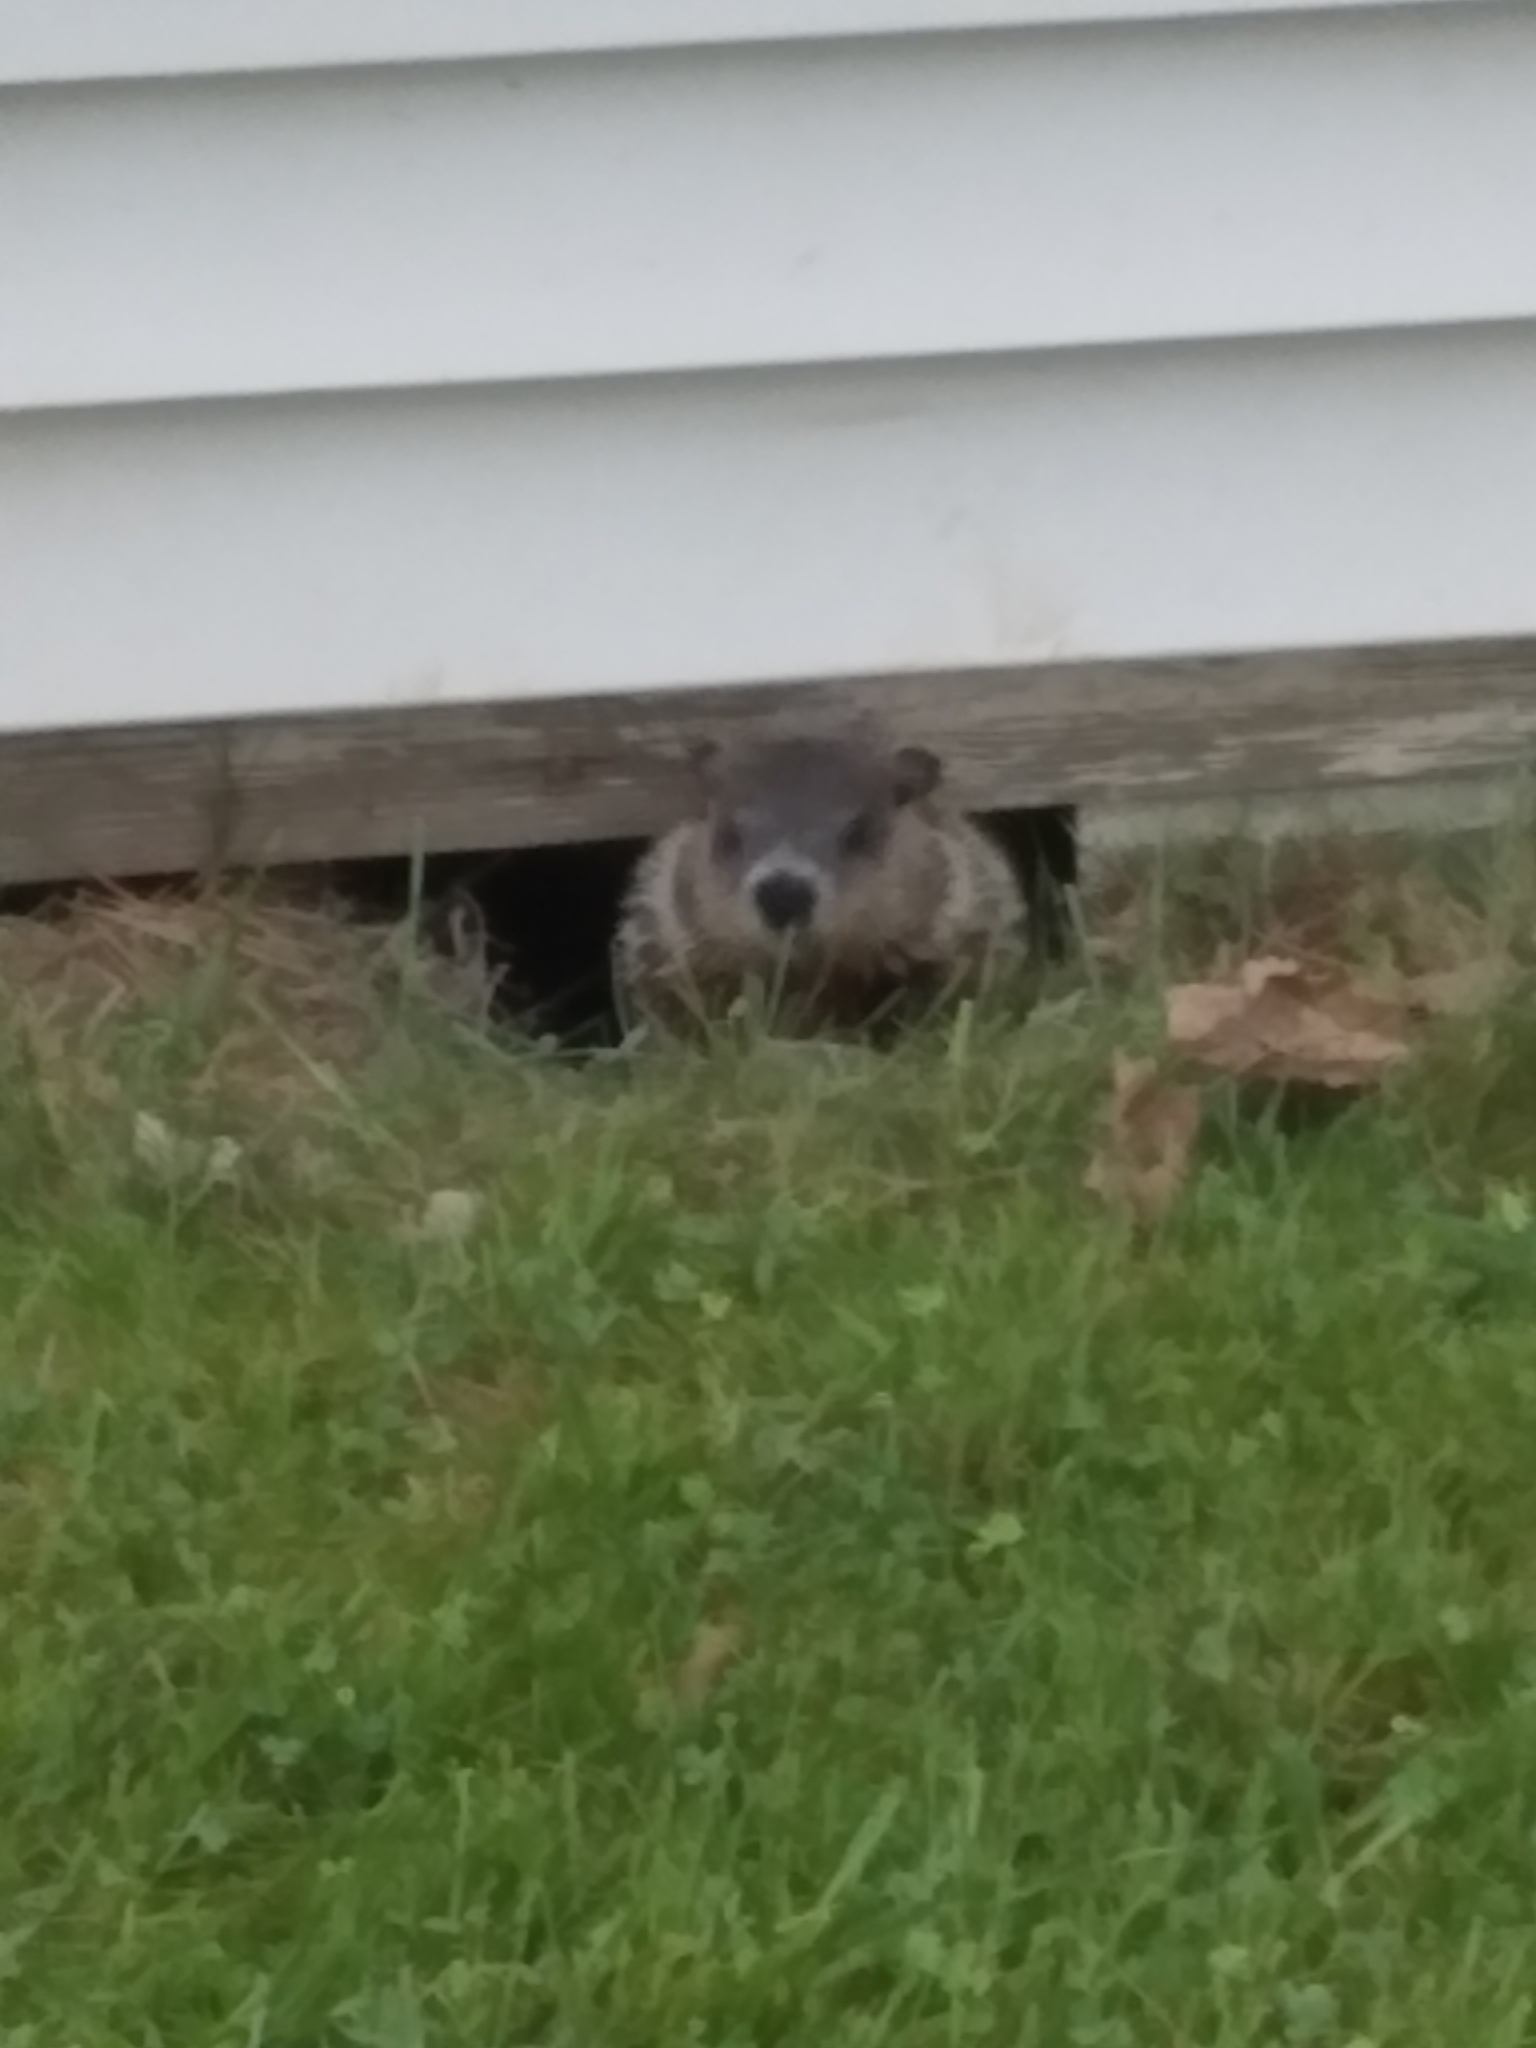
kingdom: Animalia
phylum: Chordata
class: Mammalia
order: Rodentia
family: Sciuridae
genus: Marmota
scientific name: Marmota monax
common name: Groundhog
